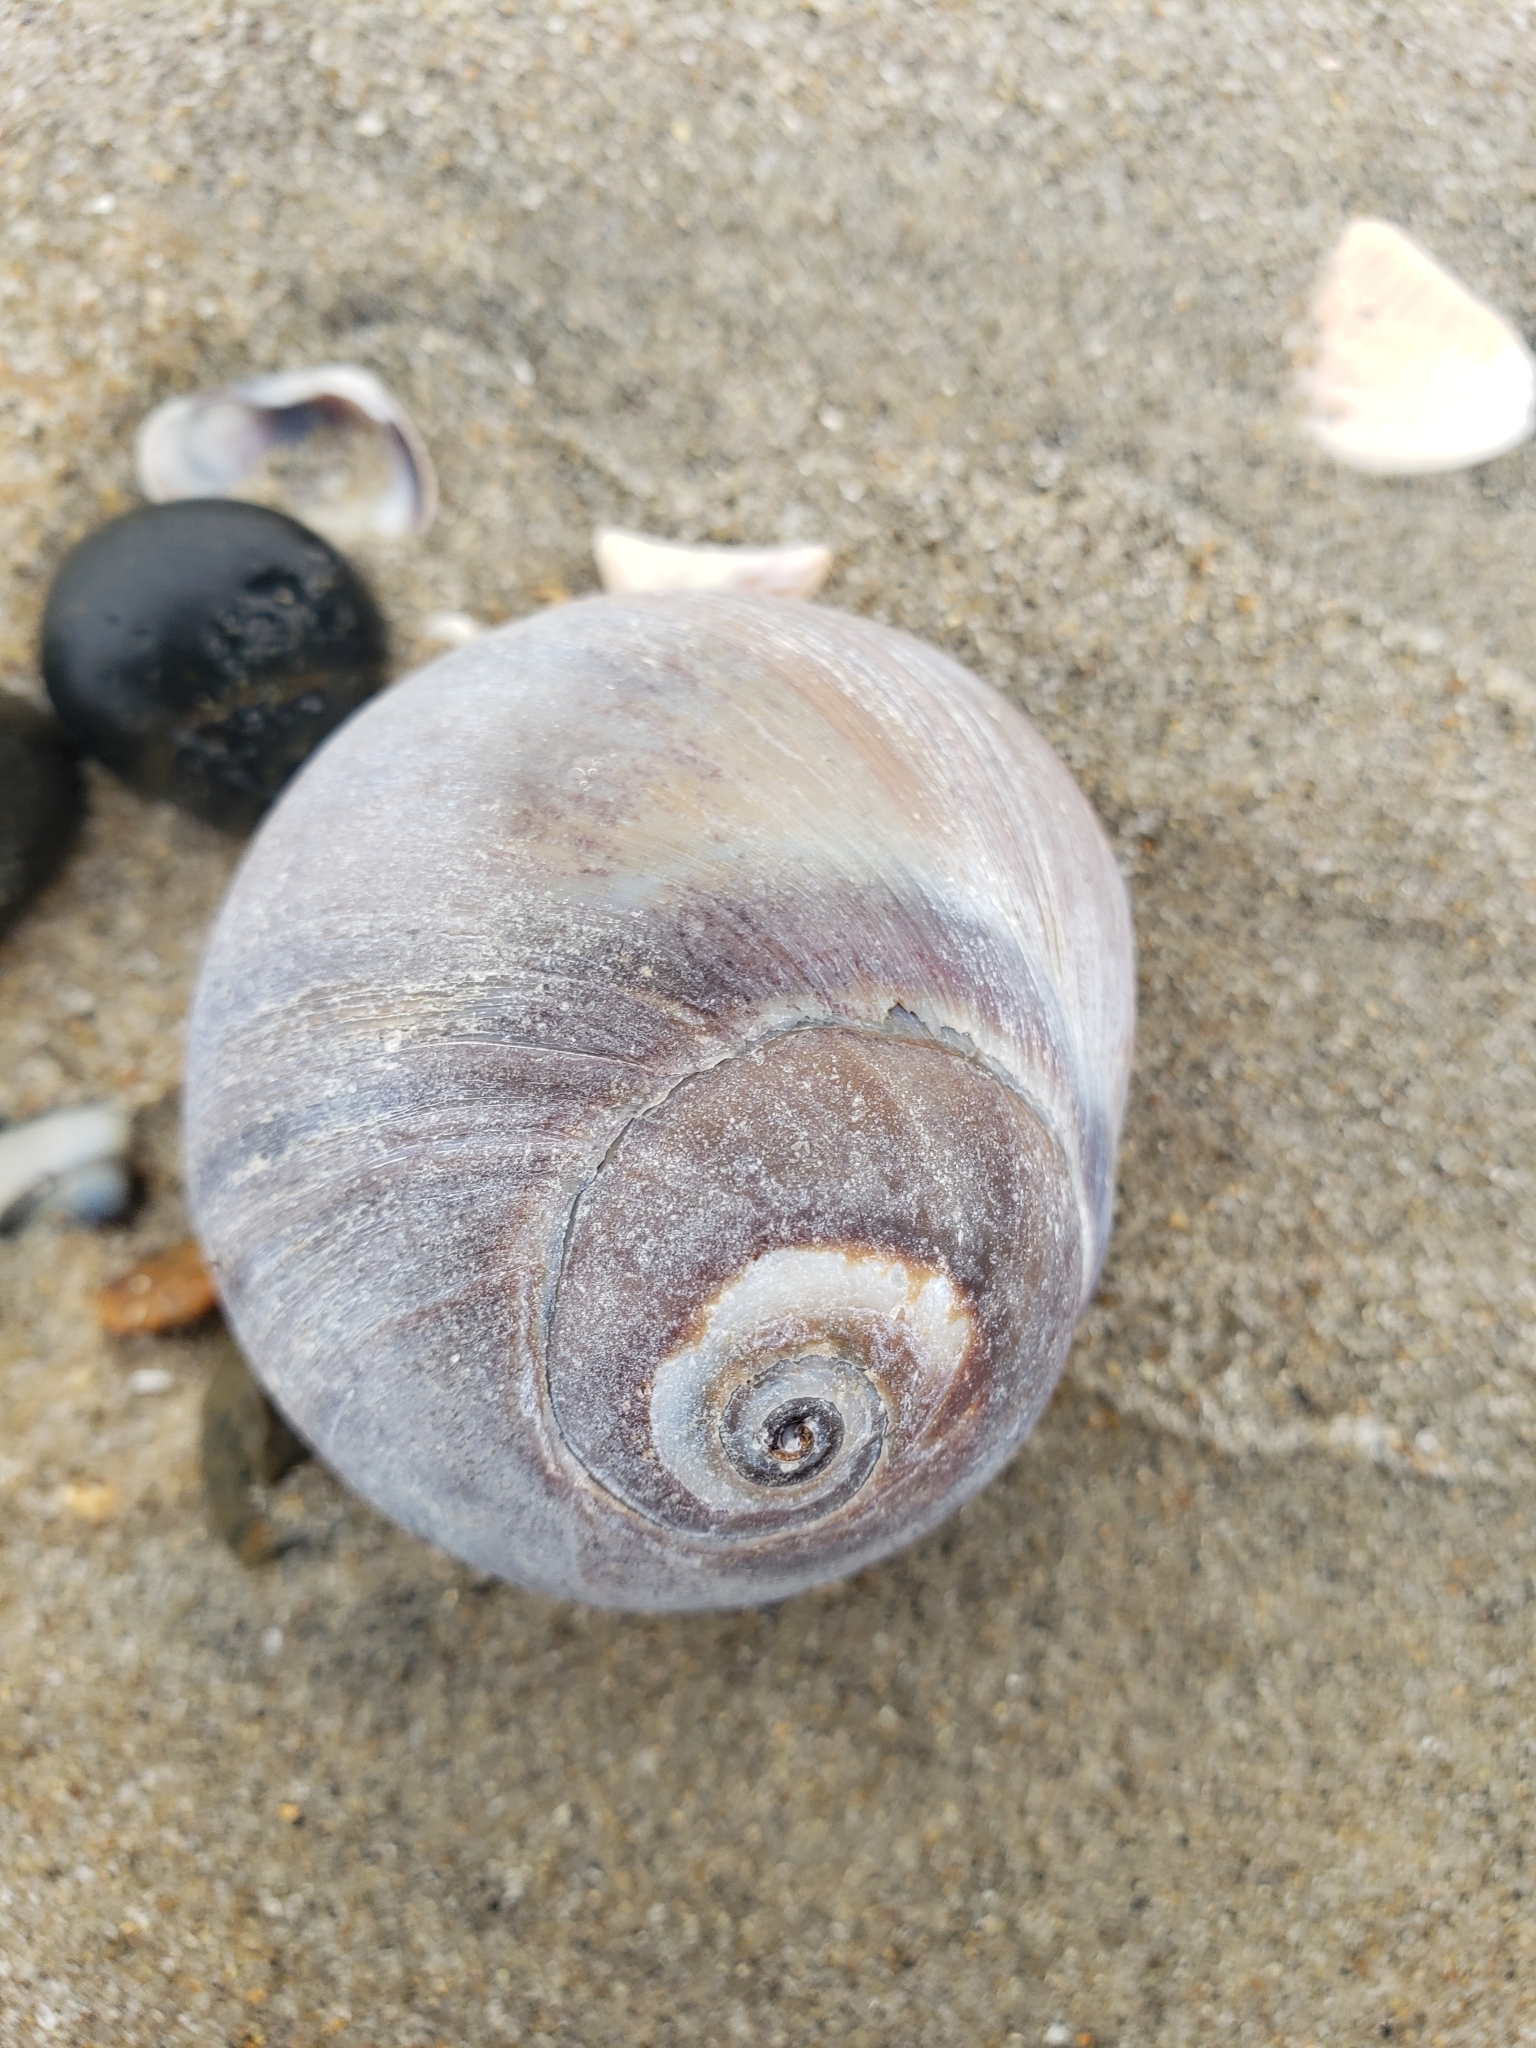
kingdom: Animalia
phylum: Mollusca
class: Gastropoda
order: Littorinimorpha
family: Naticidae
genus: Glossaulax
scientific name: Glossaulax reclusiana
